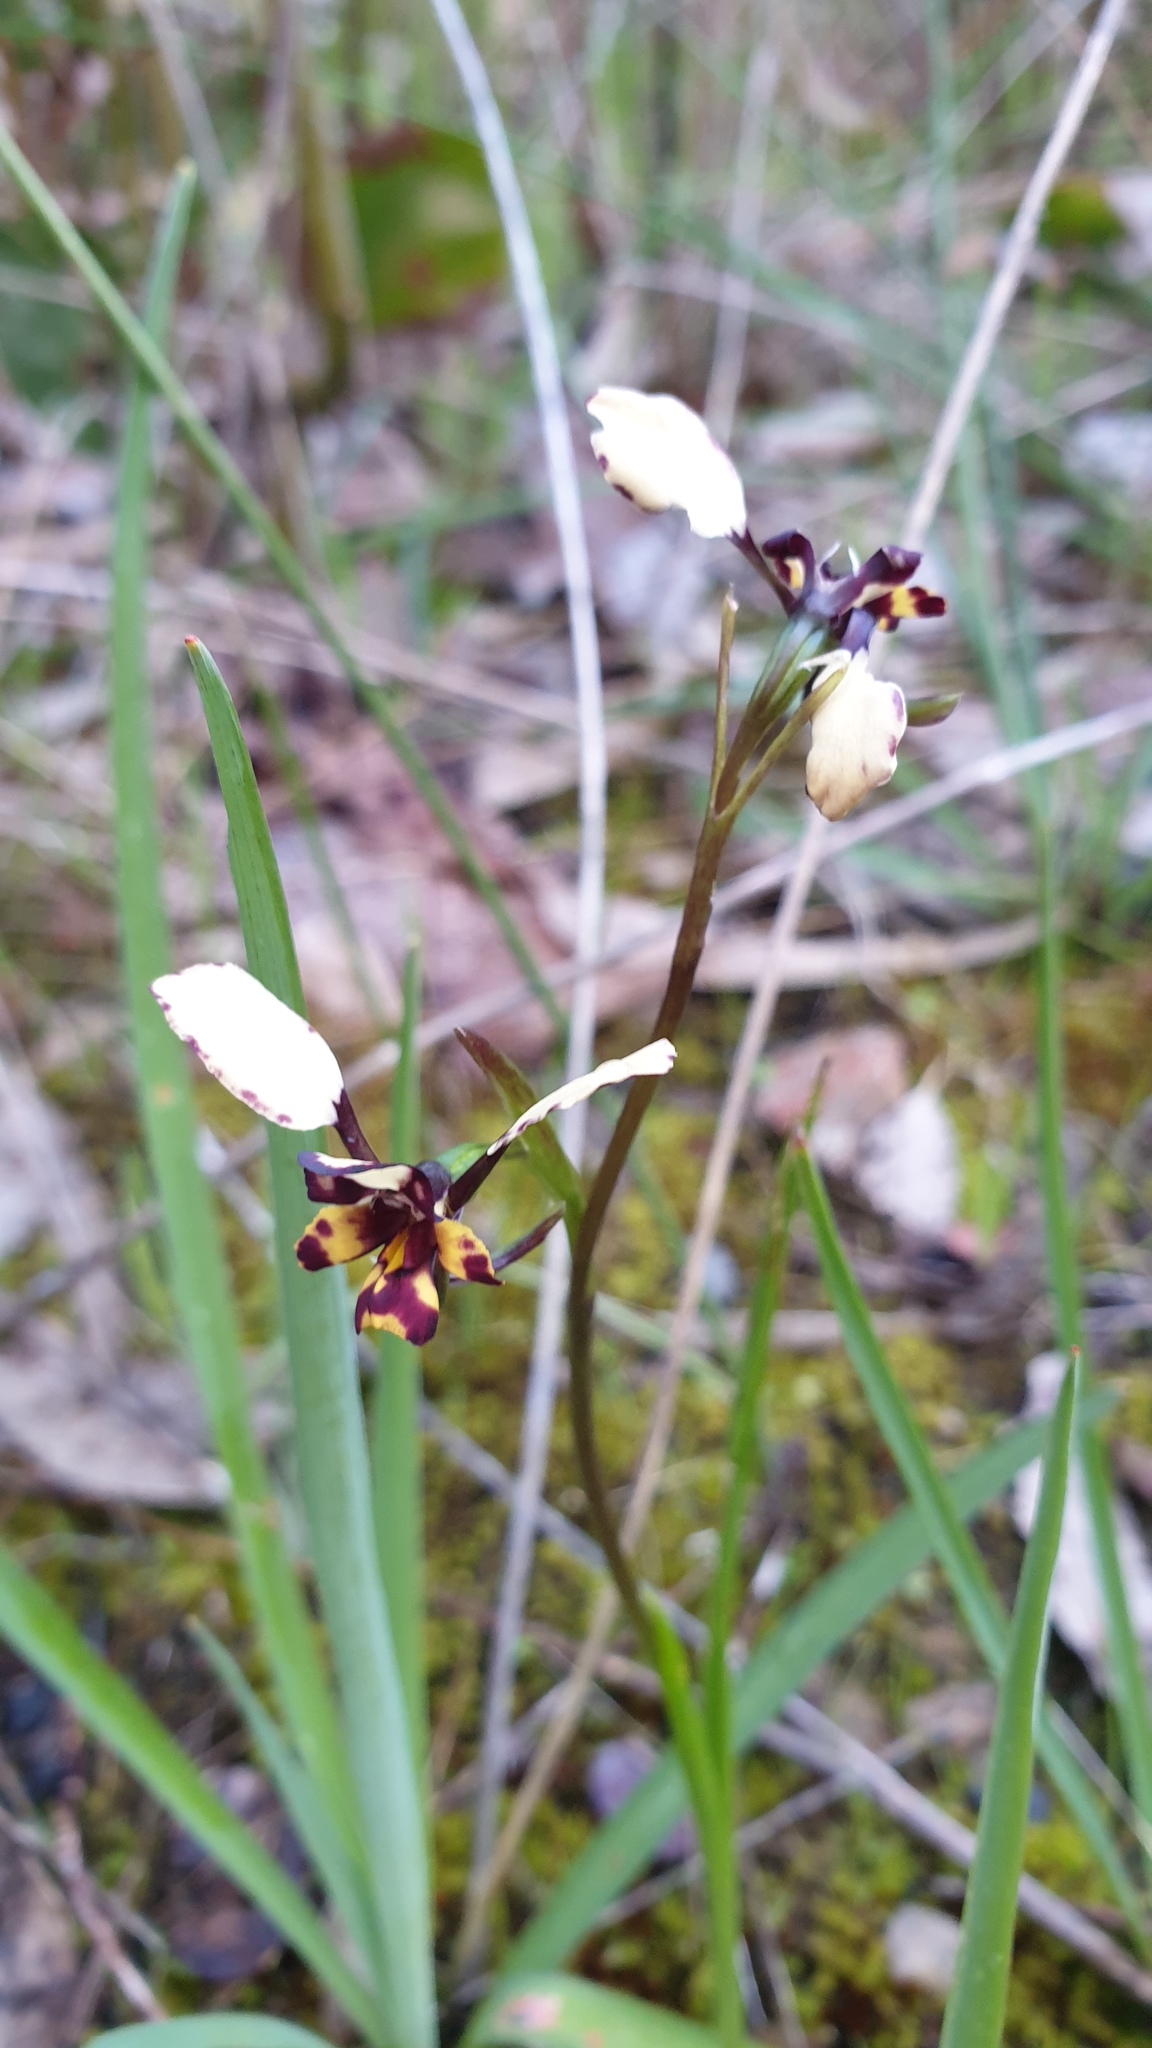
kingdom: Plantae
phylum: Tracheophyta
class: Liliopsida
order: Asparagales
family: Orchidaceae
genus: Diuris
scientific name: Diuris pardina
